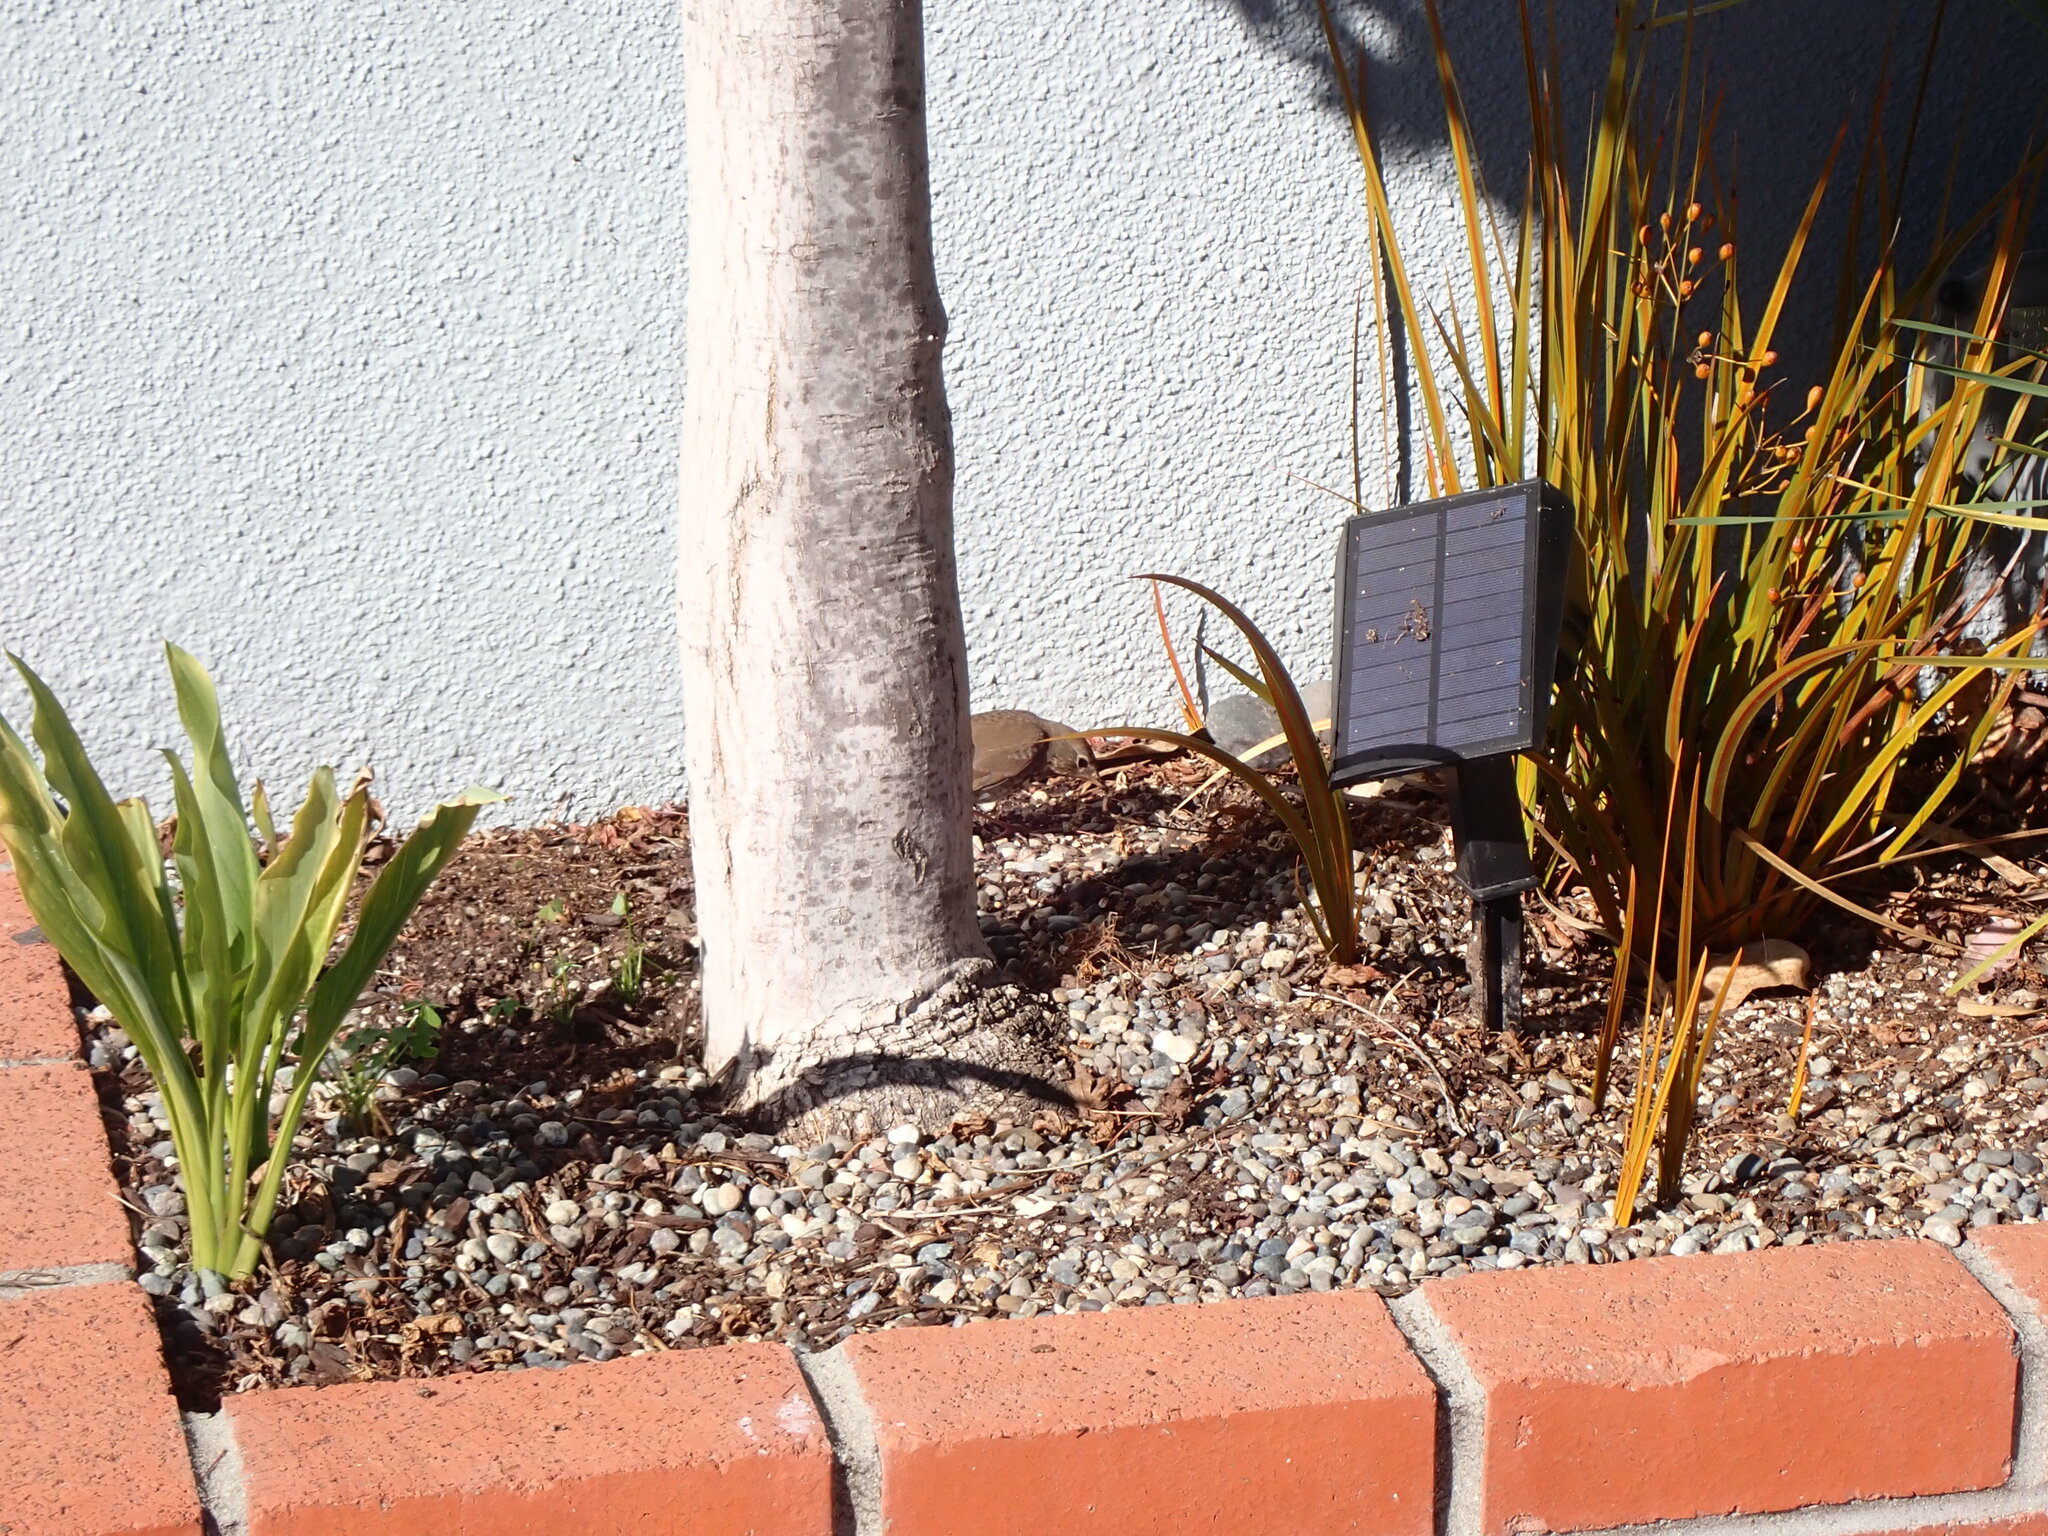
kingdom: Animalia
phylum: Chordata
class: Aves
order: Passeriformes
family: Turdidae
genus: Catharus
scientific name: Catharus guttatus
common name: Hermit thrush
